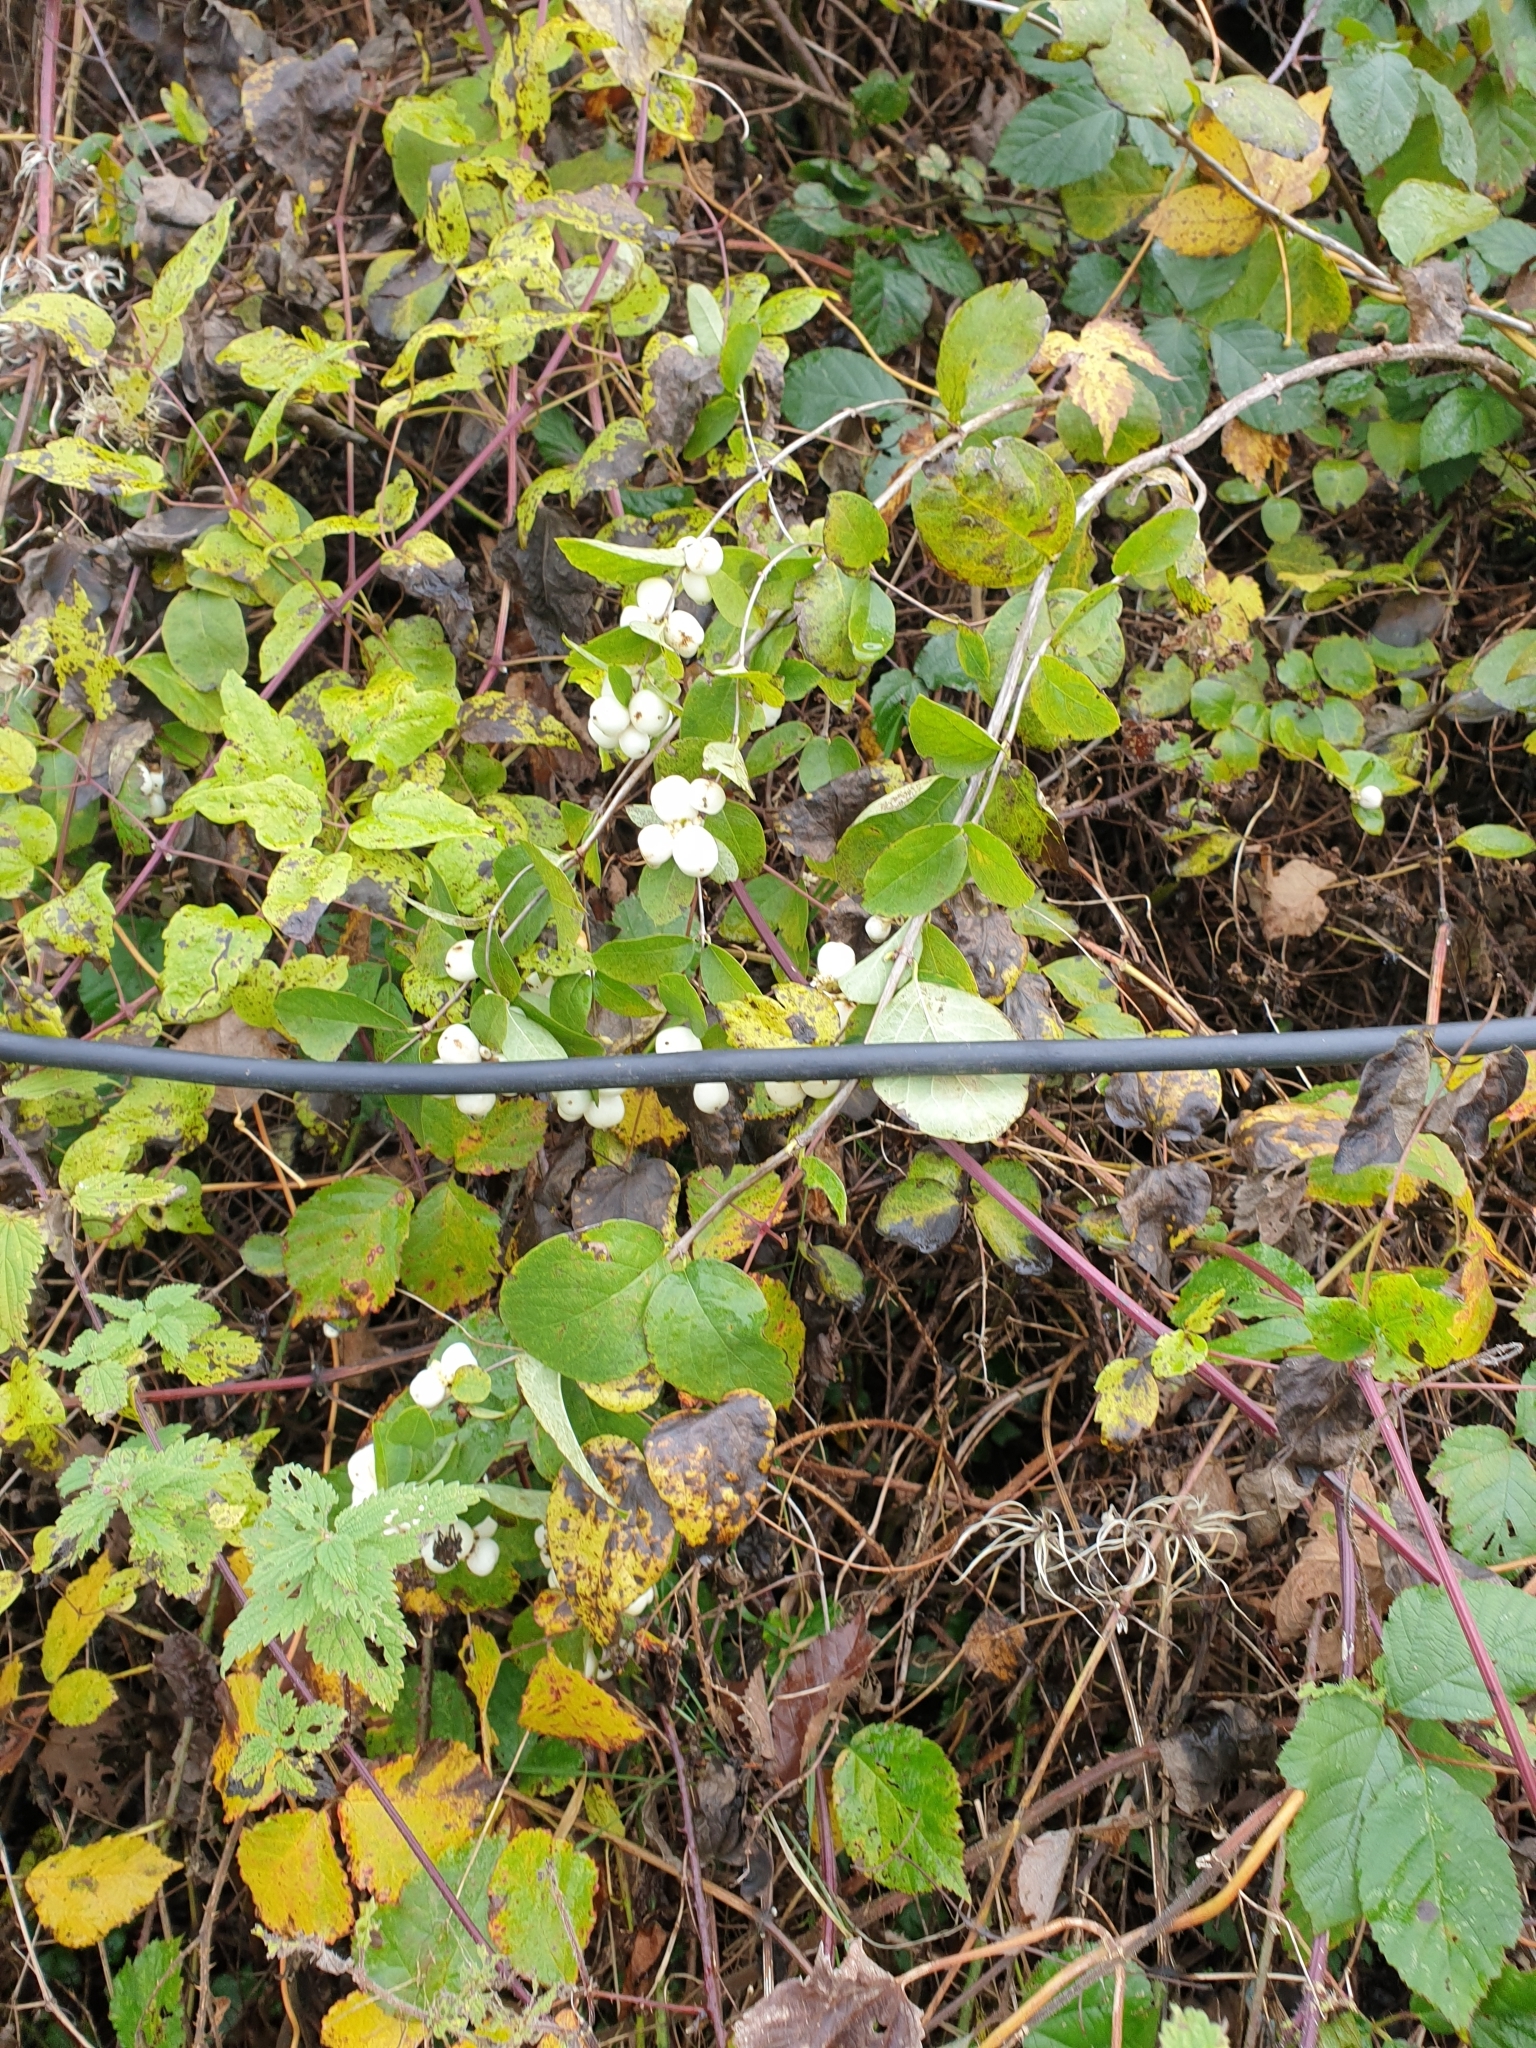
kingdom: Plantae
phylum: Tracheophyta
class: Magnoliopsida
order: Dipsacales
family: Caprifoliaceae
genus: Symphoricarpos
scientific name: Symphoricarpos albus
